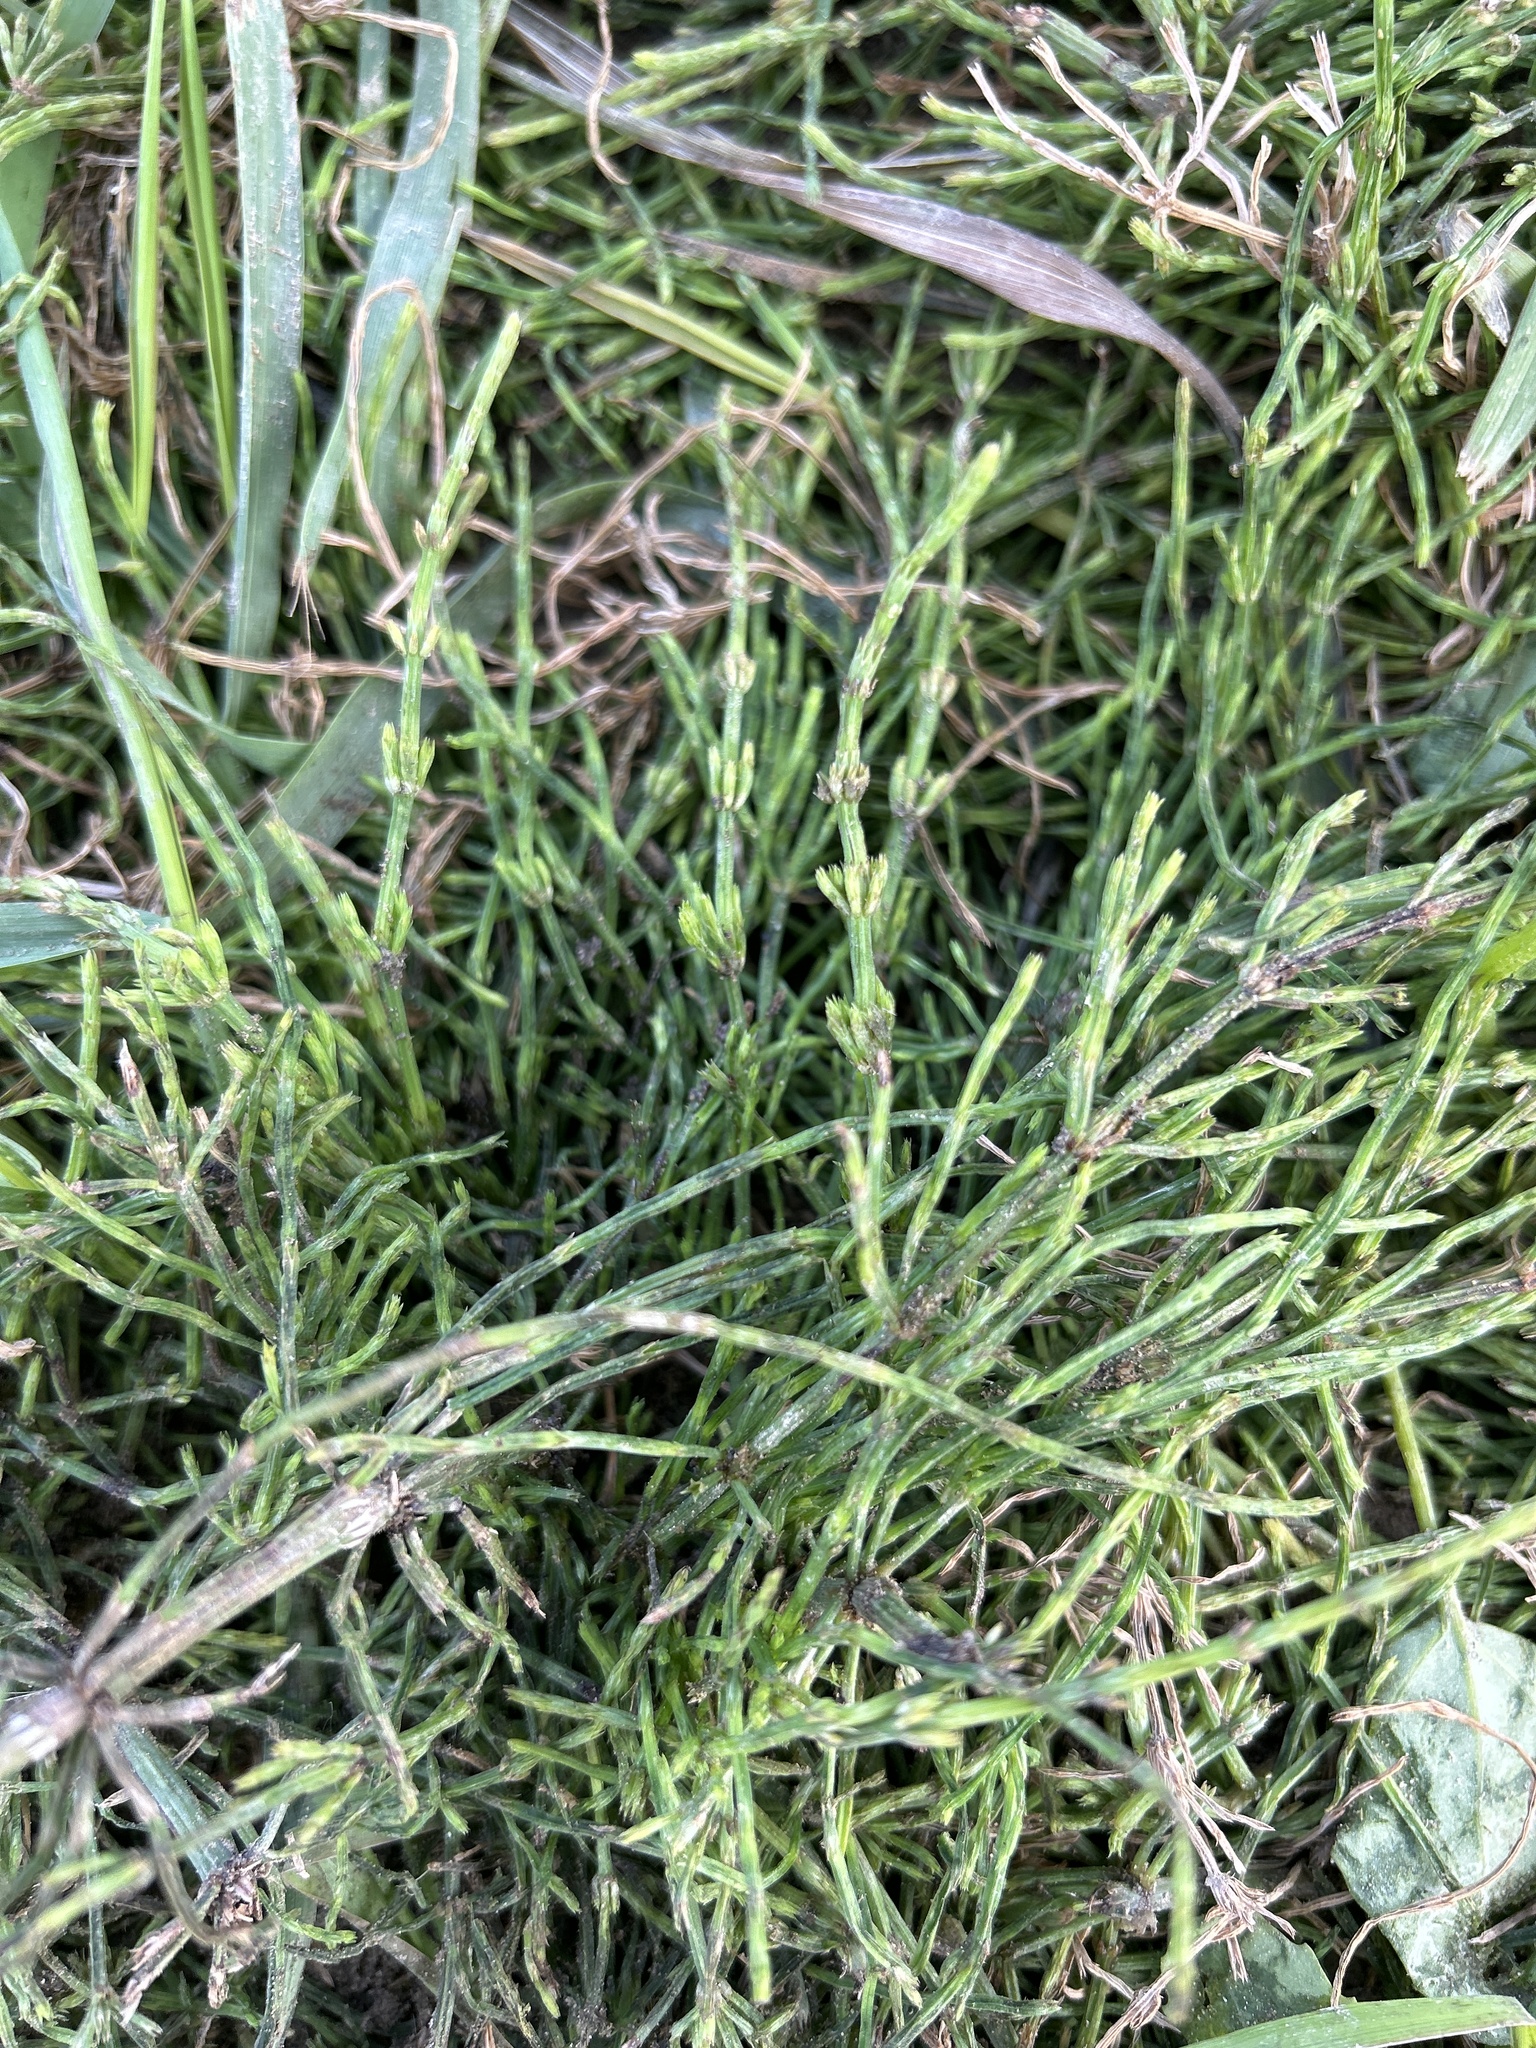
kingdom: Plantae
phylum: Tracheophyta
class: Polypodiopsida
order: Equisetales
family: Equisetaceae
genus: Equisetum
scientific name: Equisetum arvense
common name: Field horsetail
